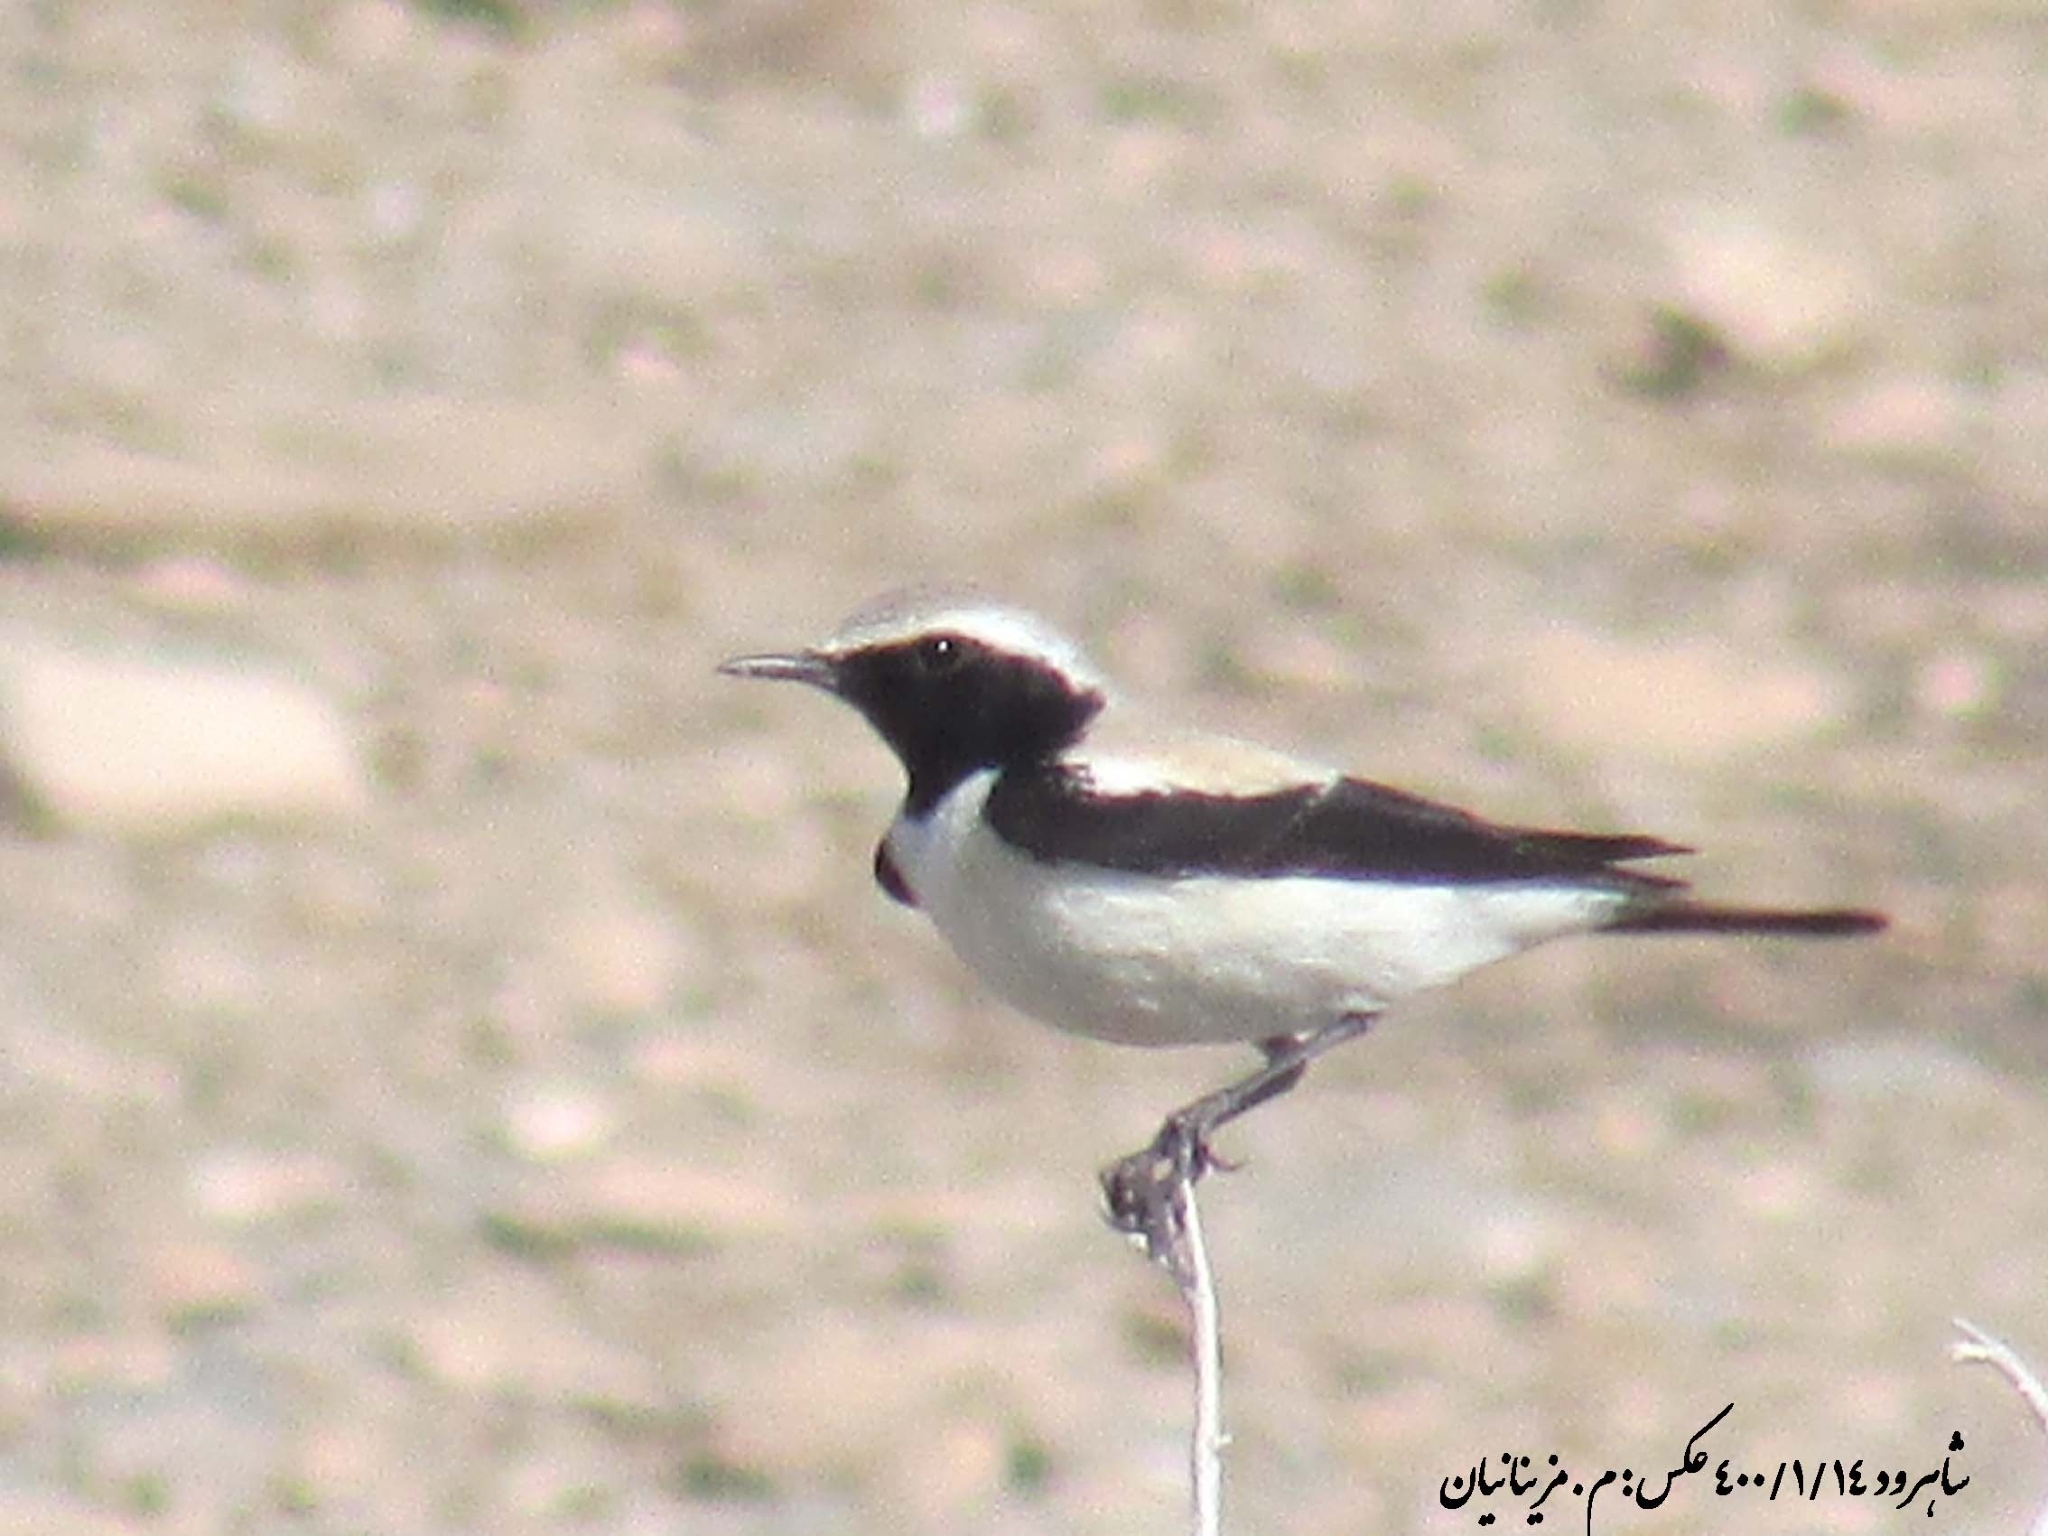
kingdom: Animalia
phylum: Chordata
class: Aves
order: Passeriformes
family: Muscicapidae
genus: Oenanthe
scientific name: Oenanthe deserti
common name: Desert wheatear
